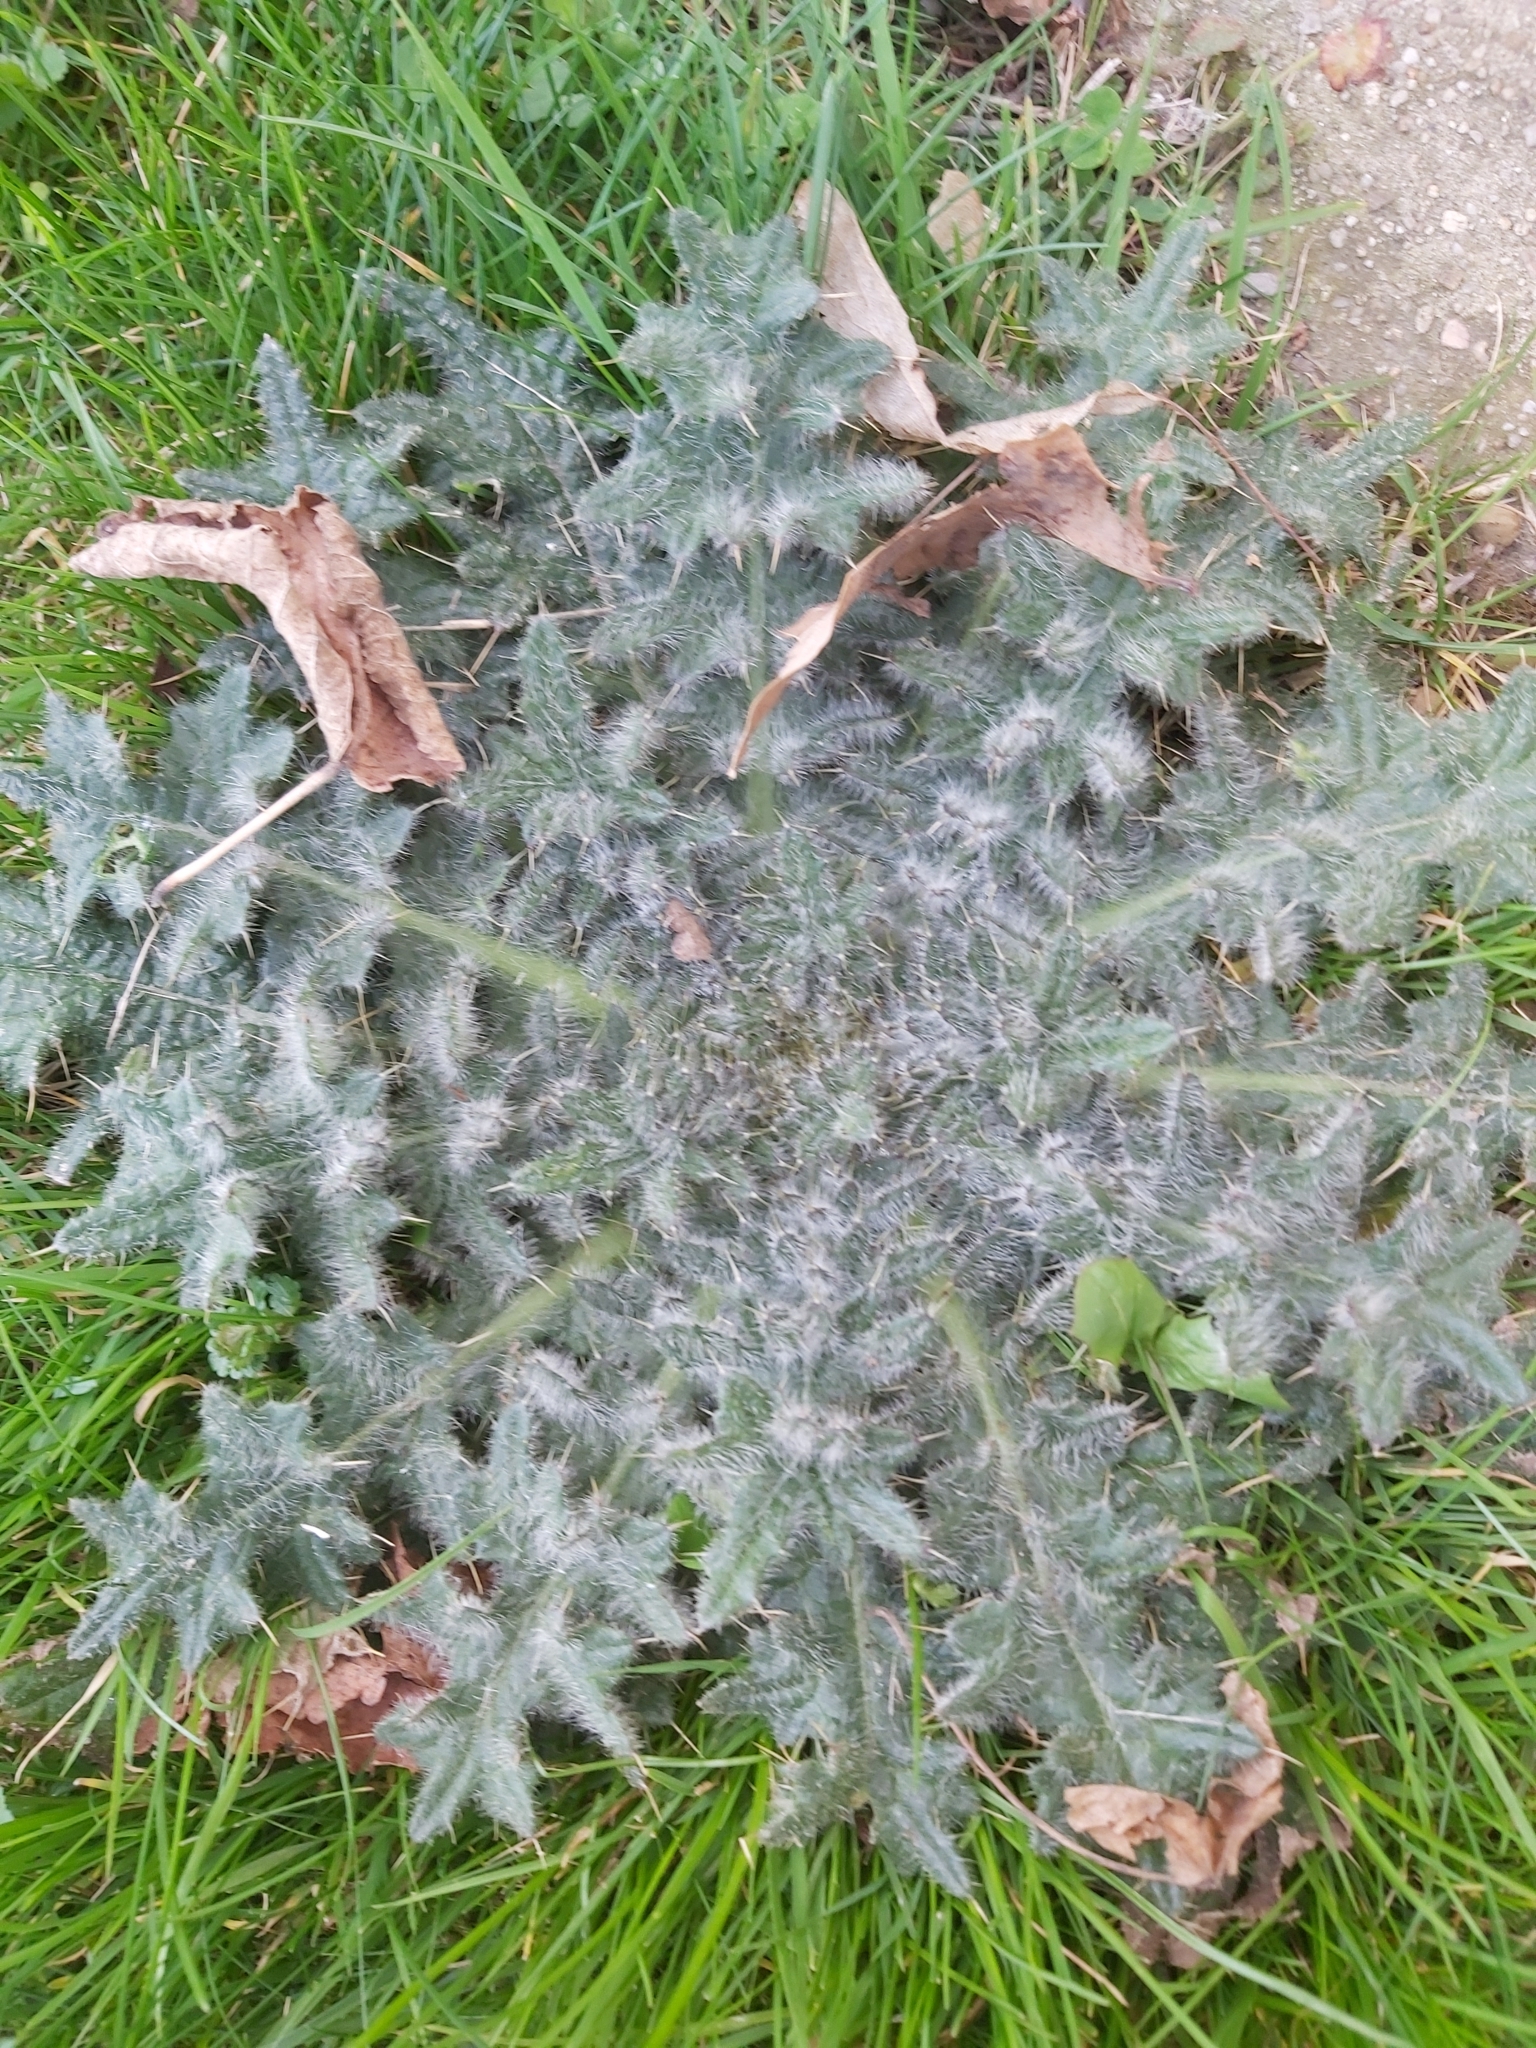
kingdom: Plantae
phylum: Tracheophyta
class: Magnoliopsida
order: Asterales
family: Asteraceae
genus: Cirsium
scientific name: Cirsium vulgare
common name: Bull thistle
